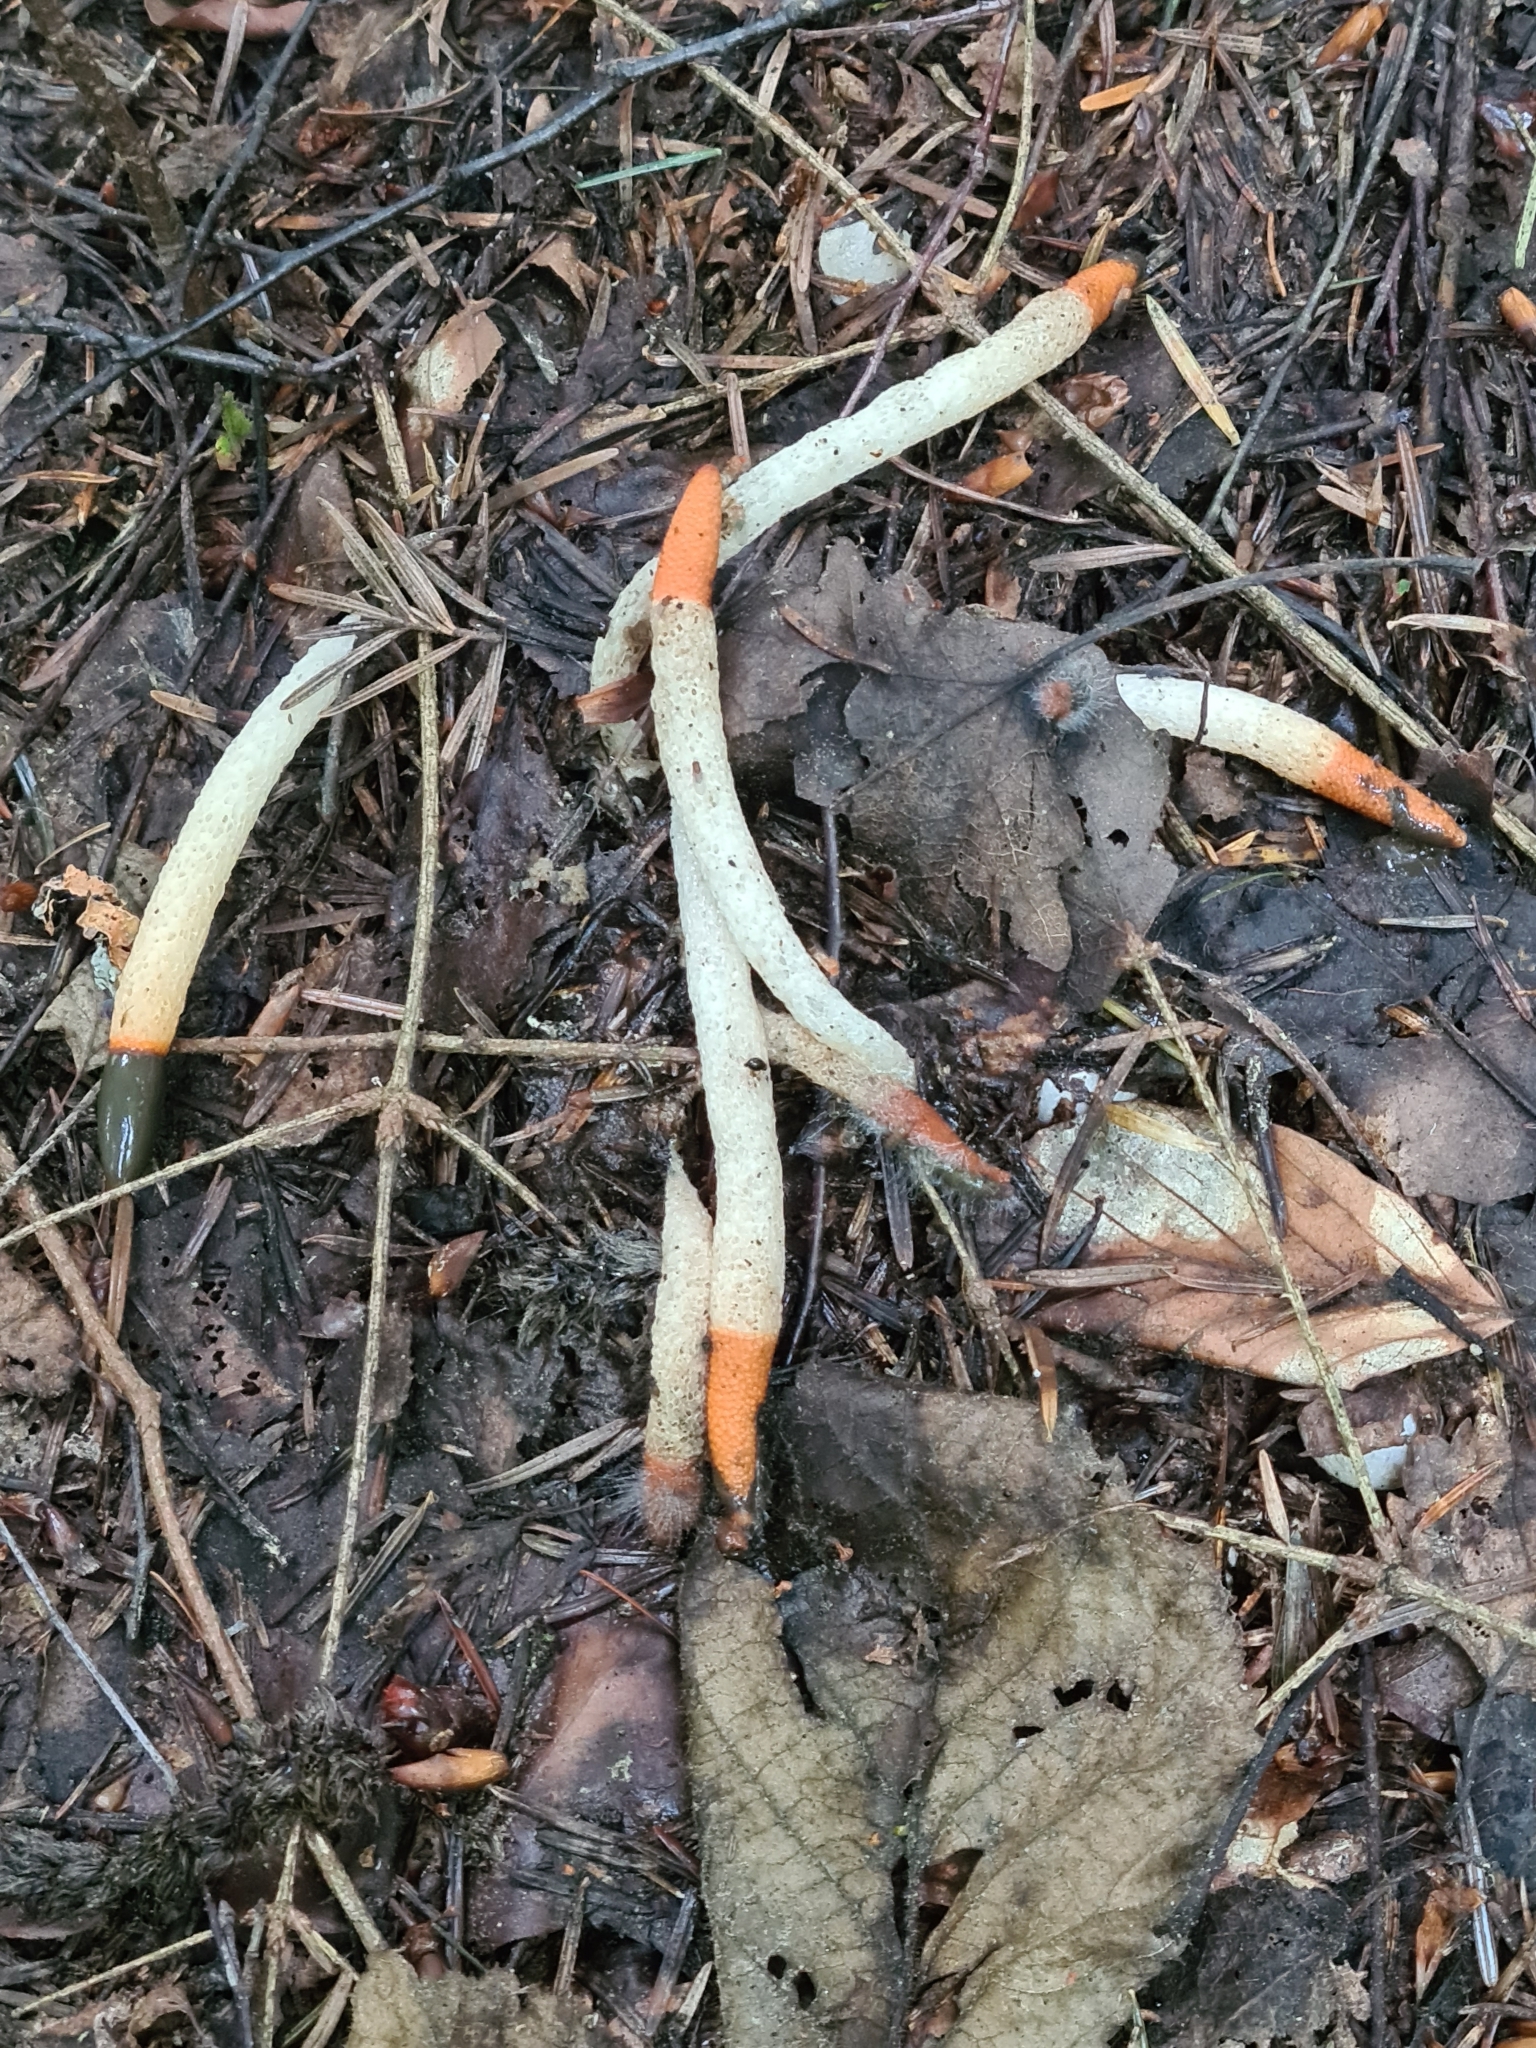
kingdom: Fungi
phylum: Basidiomycota
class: Agaricomycetes
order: Phallales
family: Phallaceae
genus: Mutinus
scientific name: Mutinus caninus
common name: Dog stinkhorn
